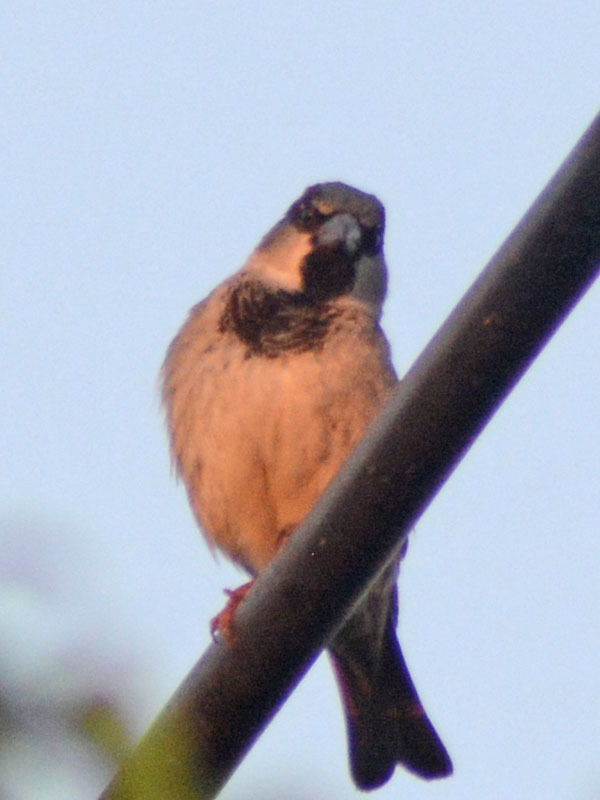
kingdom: Animalia
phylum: Chordata
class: Aves
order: Passeriformes
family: Passeridae
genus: Passer
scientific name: Passer domesticus
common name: House sparrow
